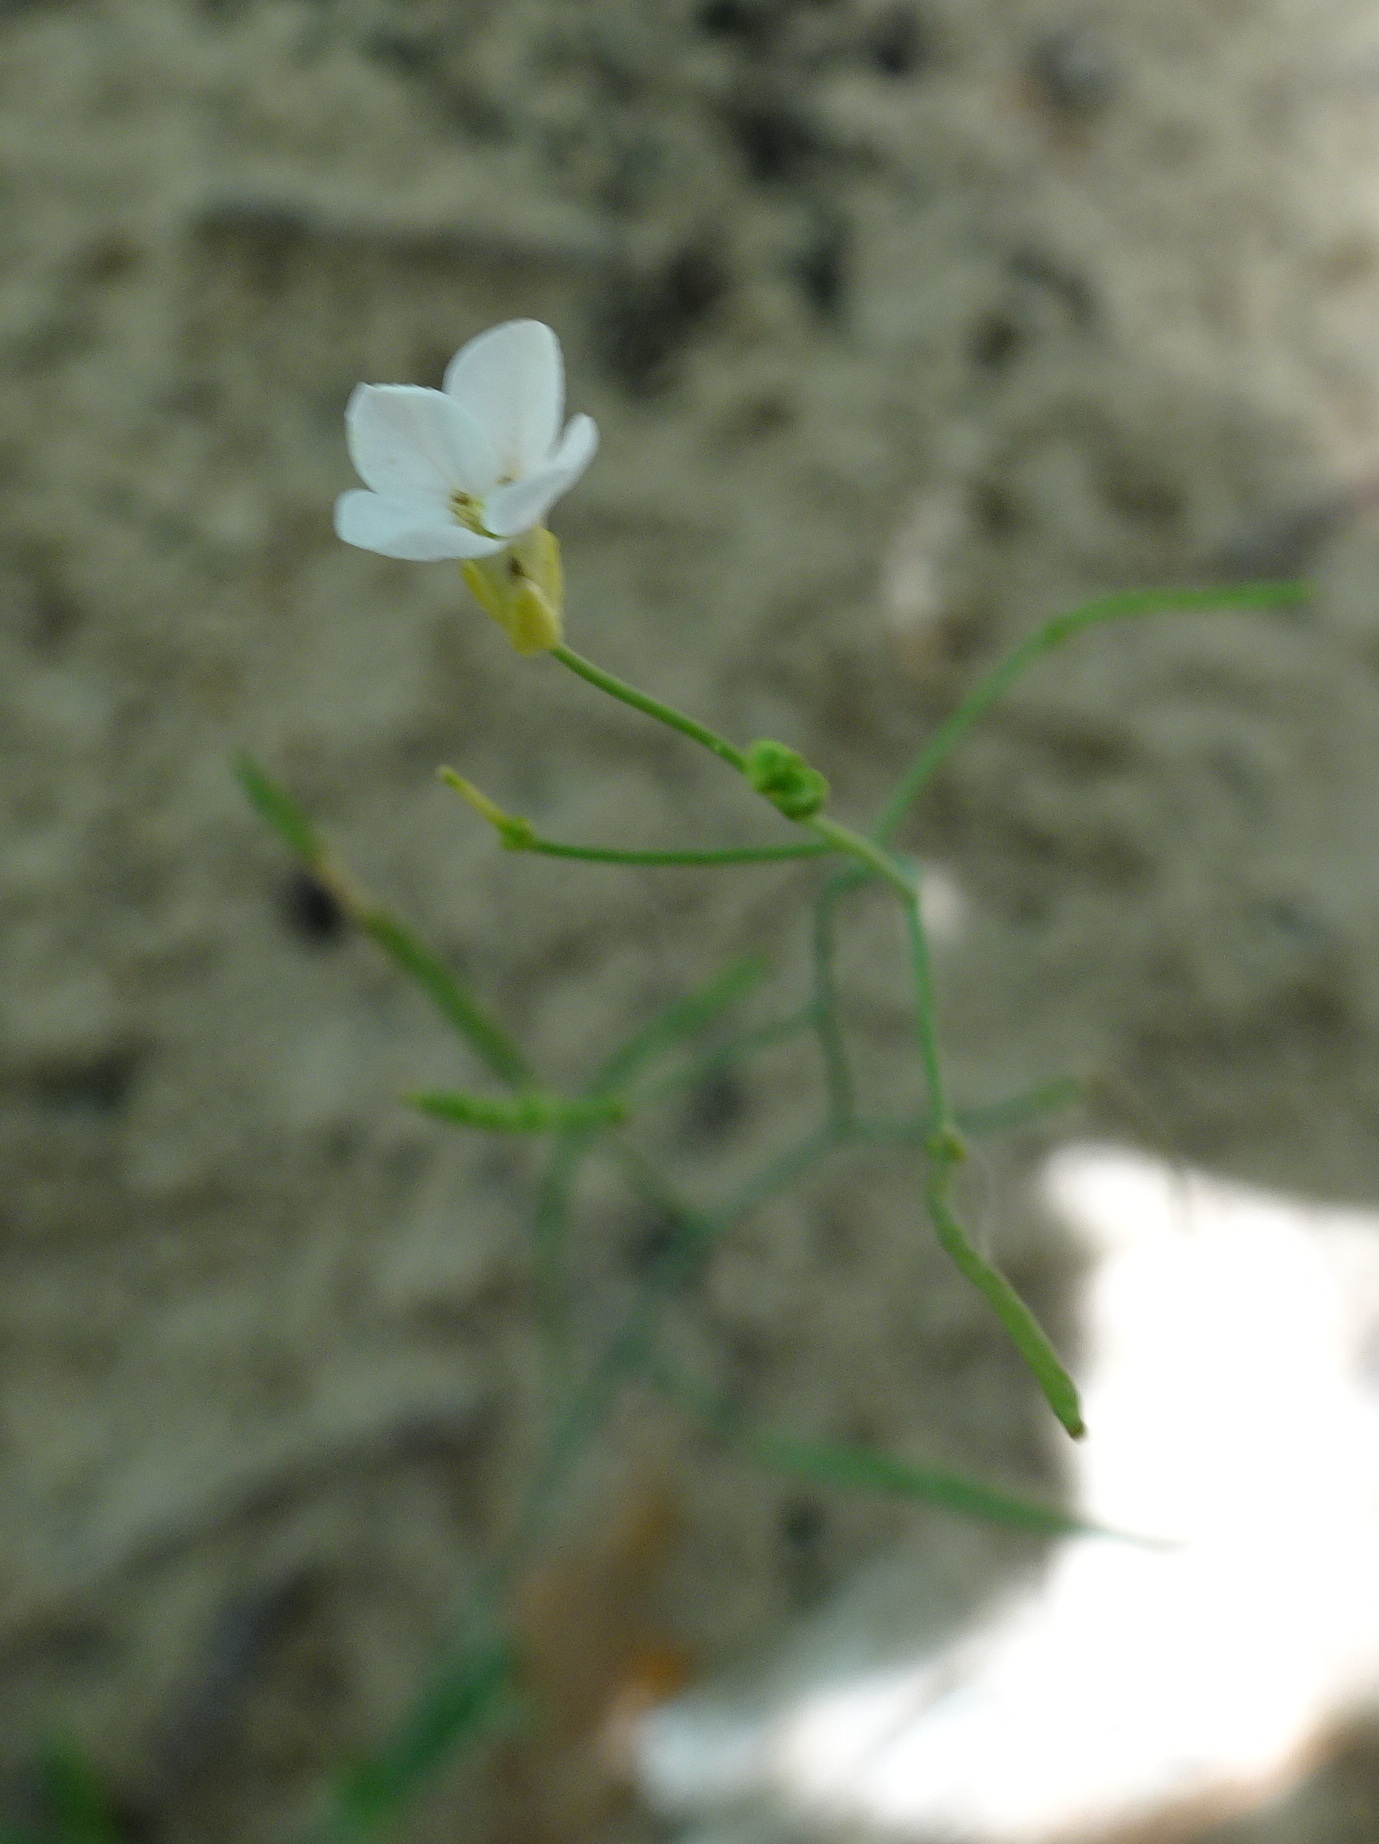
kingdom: Plantae
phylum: Tracheophyta
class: Magnoliopsida
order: Brassicales
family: Brassicaceae
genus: Arabidopsis
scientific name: Arabidopsis lyrata
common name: Lyrate rockcress
